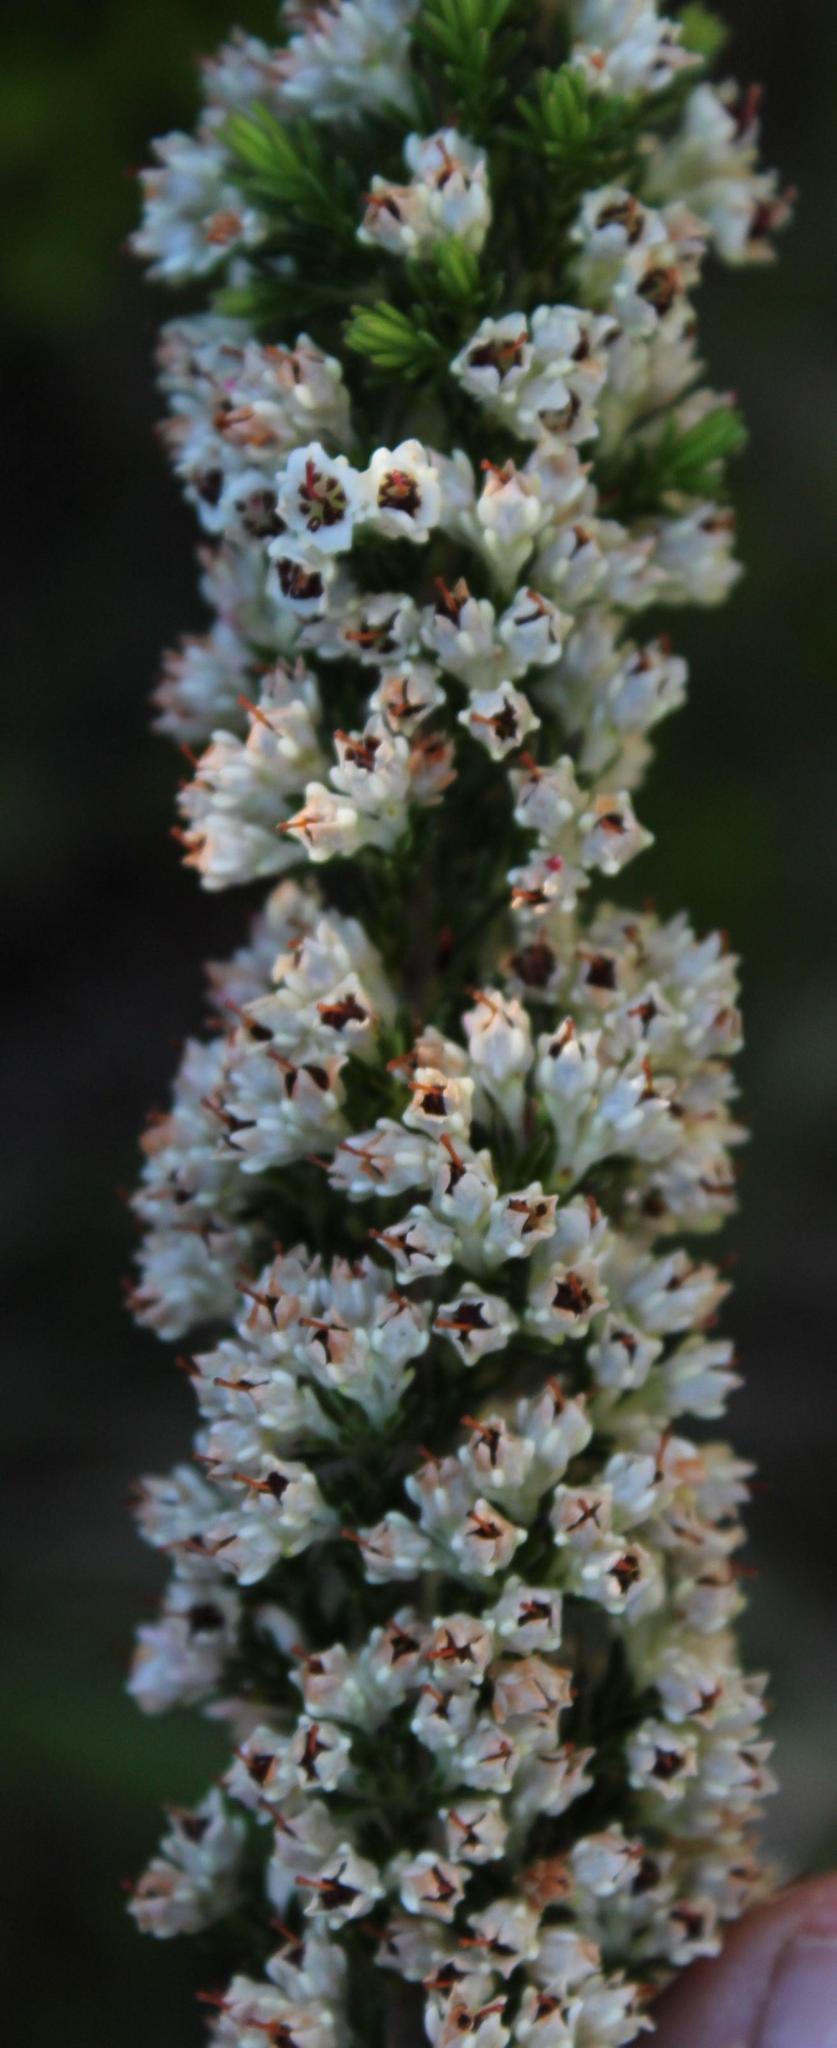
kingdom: Plantae
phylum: Tracheophyta
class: Magnoliopsida
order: Ericales
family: Ericaceae
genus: Erica
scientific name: Erica calycina
